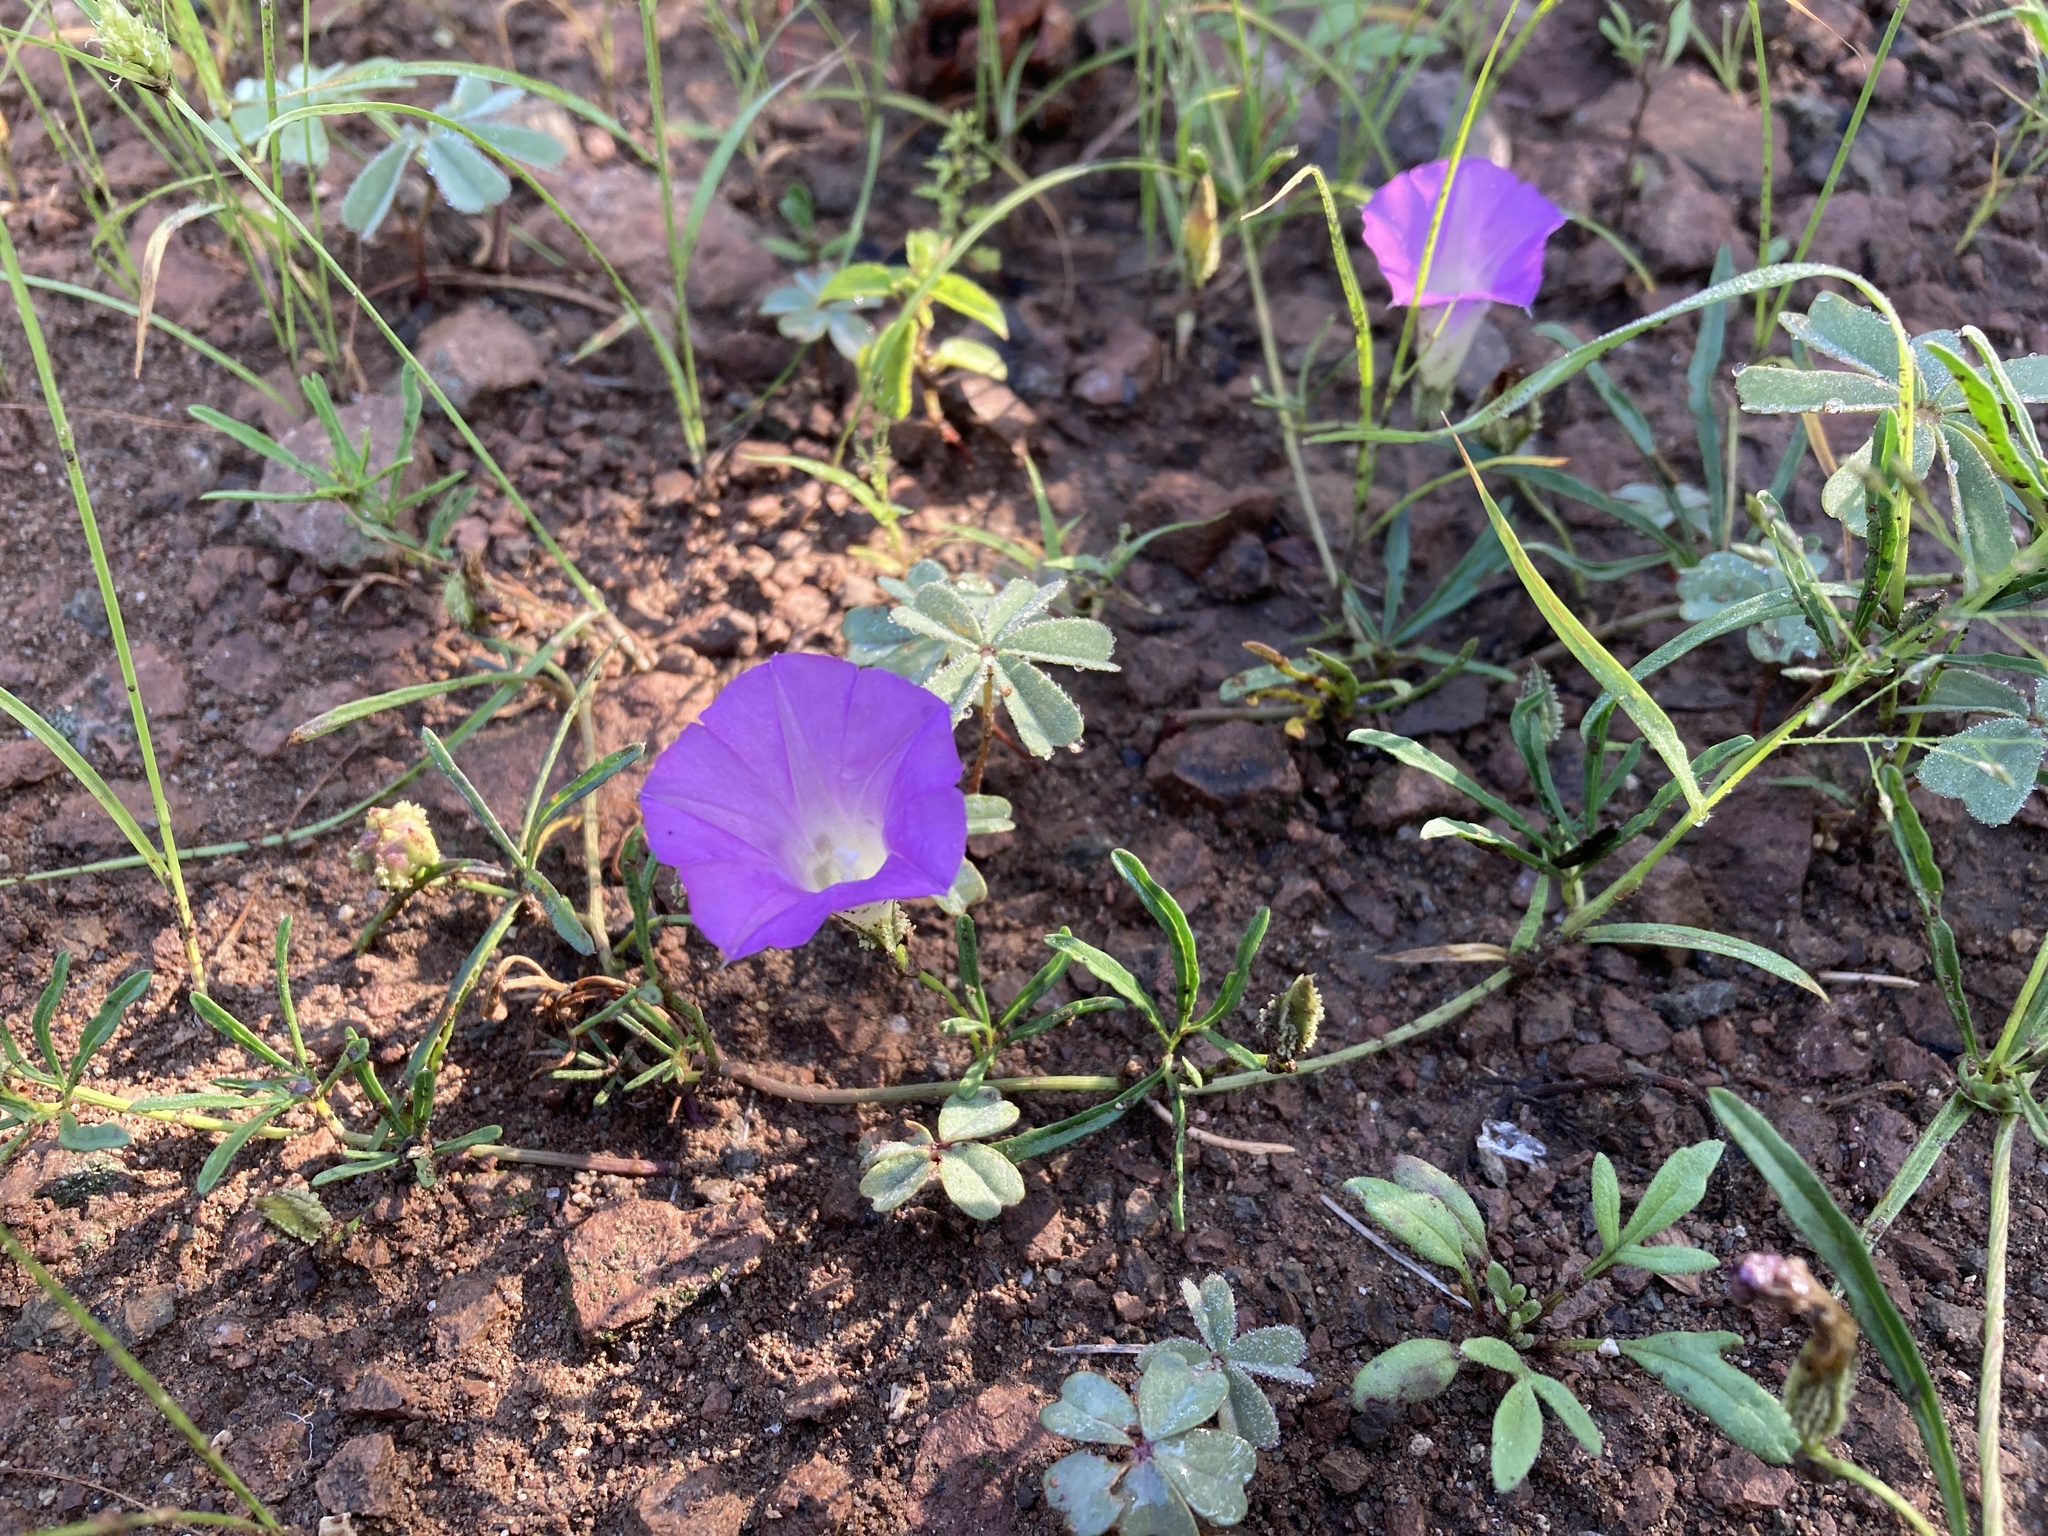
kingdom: Plantae
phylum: Tracheophyta
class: Magnoliopsida
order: Solanales
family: Convolvulaceae
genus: Ipomoea
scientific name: Ipomoea plummerae
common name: Plummer's morning-glory
